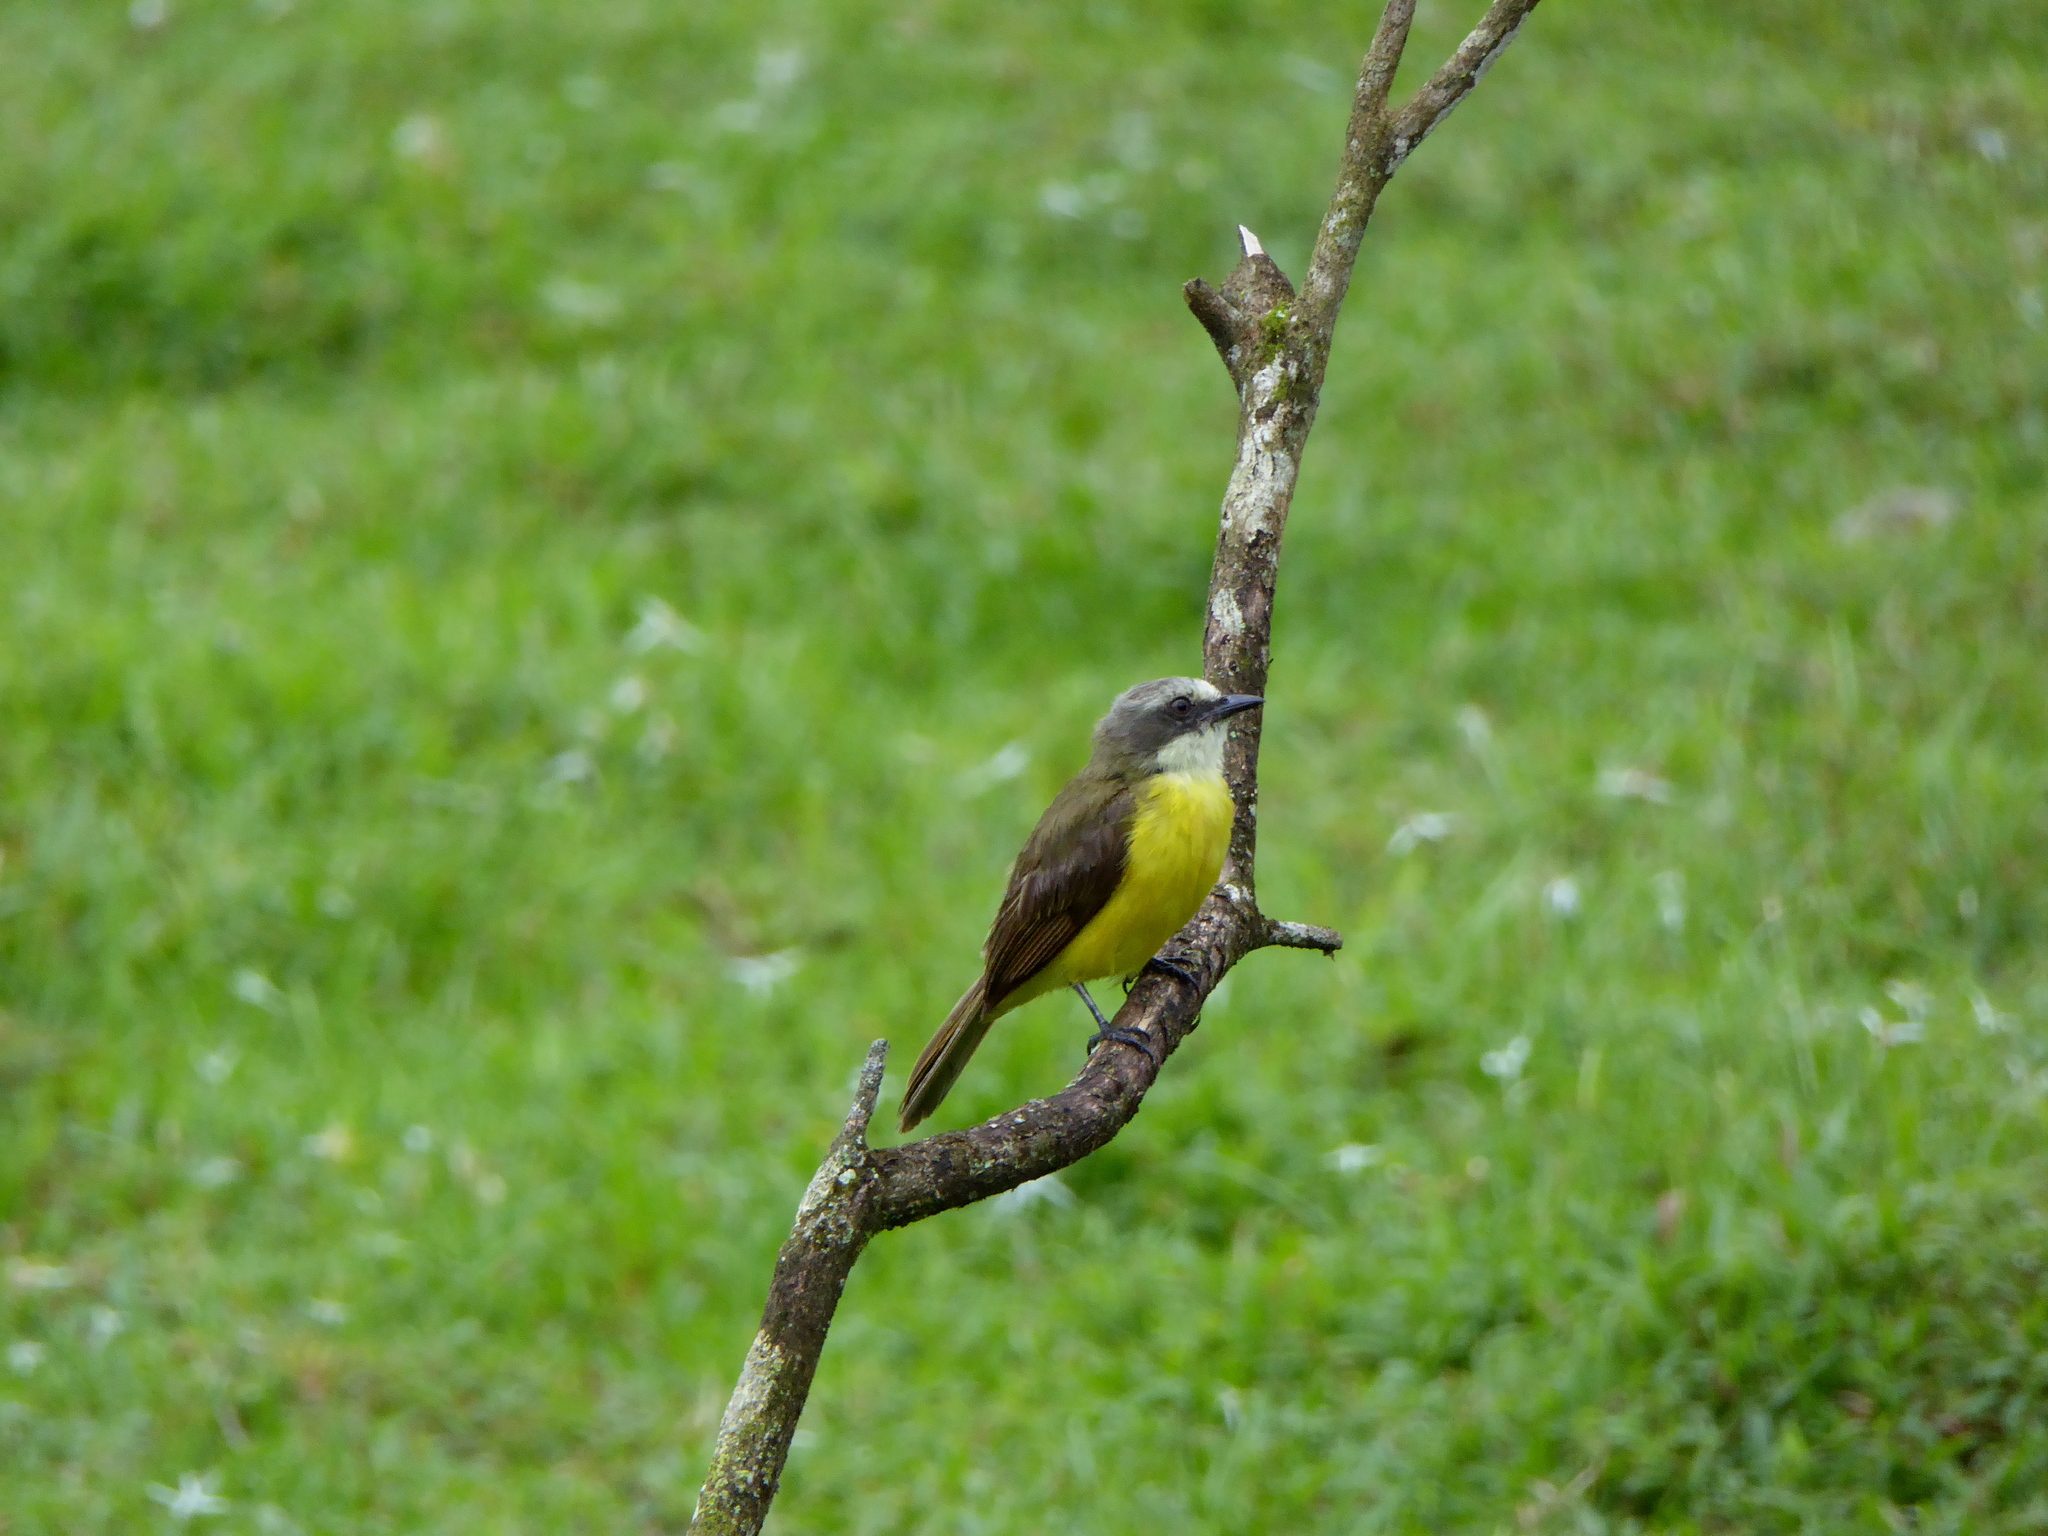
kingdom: Animalia
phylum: Chordata
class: Aves
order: Passeriformes
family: Tyrannidae
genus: Myiozetetes
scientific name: Myiozetetes granadensis
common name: Gray-capped flycatcher
